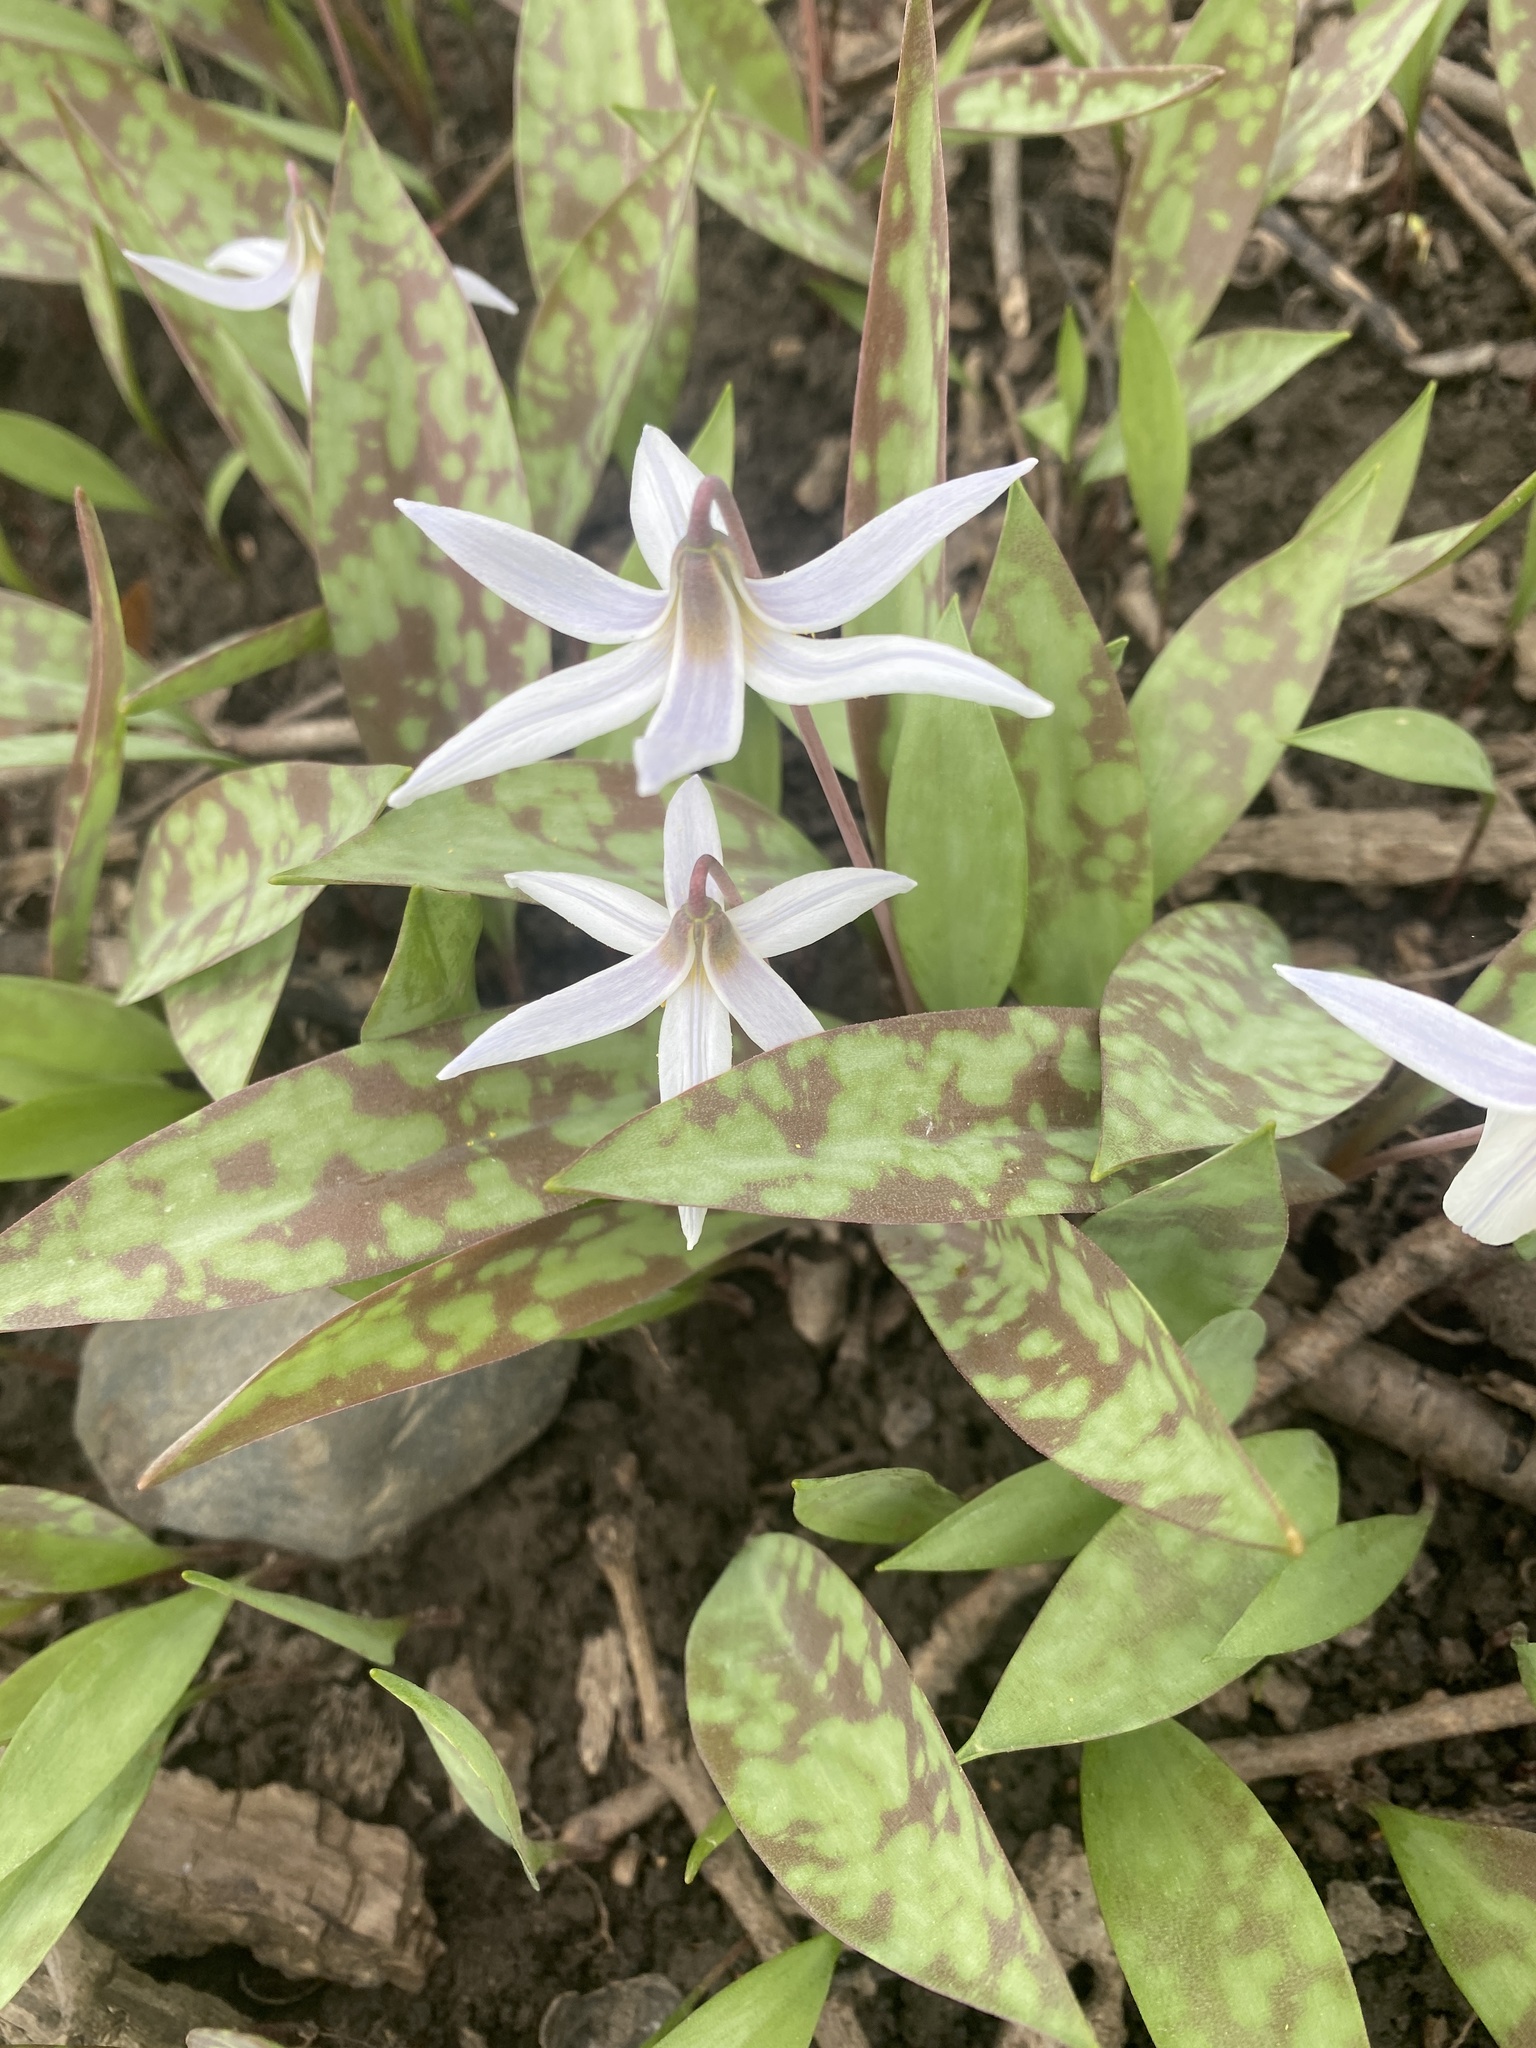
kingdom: Plantae
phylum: Tracheophyta
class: Liliopsida
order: Liliales
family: Liliaceae
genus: Erythronium
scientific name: Erythronium
